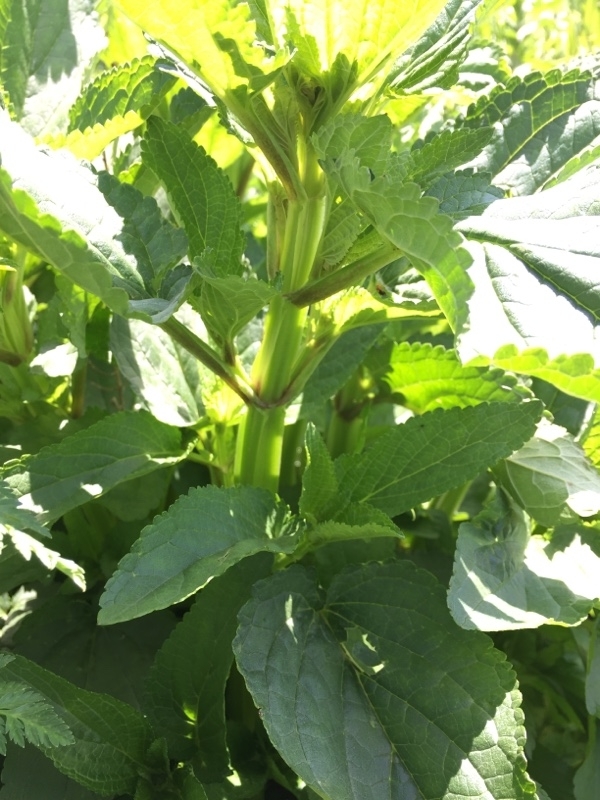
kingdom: Plantae
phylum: Tracheophyta
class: Magnoliopsida
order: Lamiales
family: Scrophulariaceae
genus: Scrophularia
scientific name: Scrophularia umbrosa
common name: Green figwort
